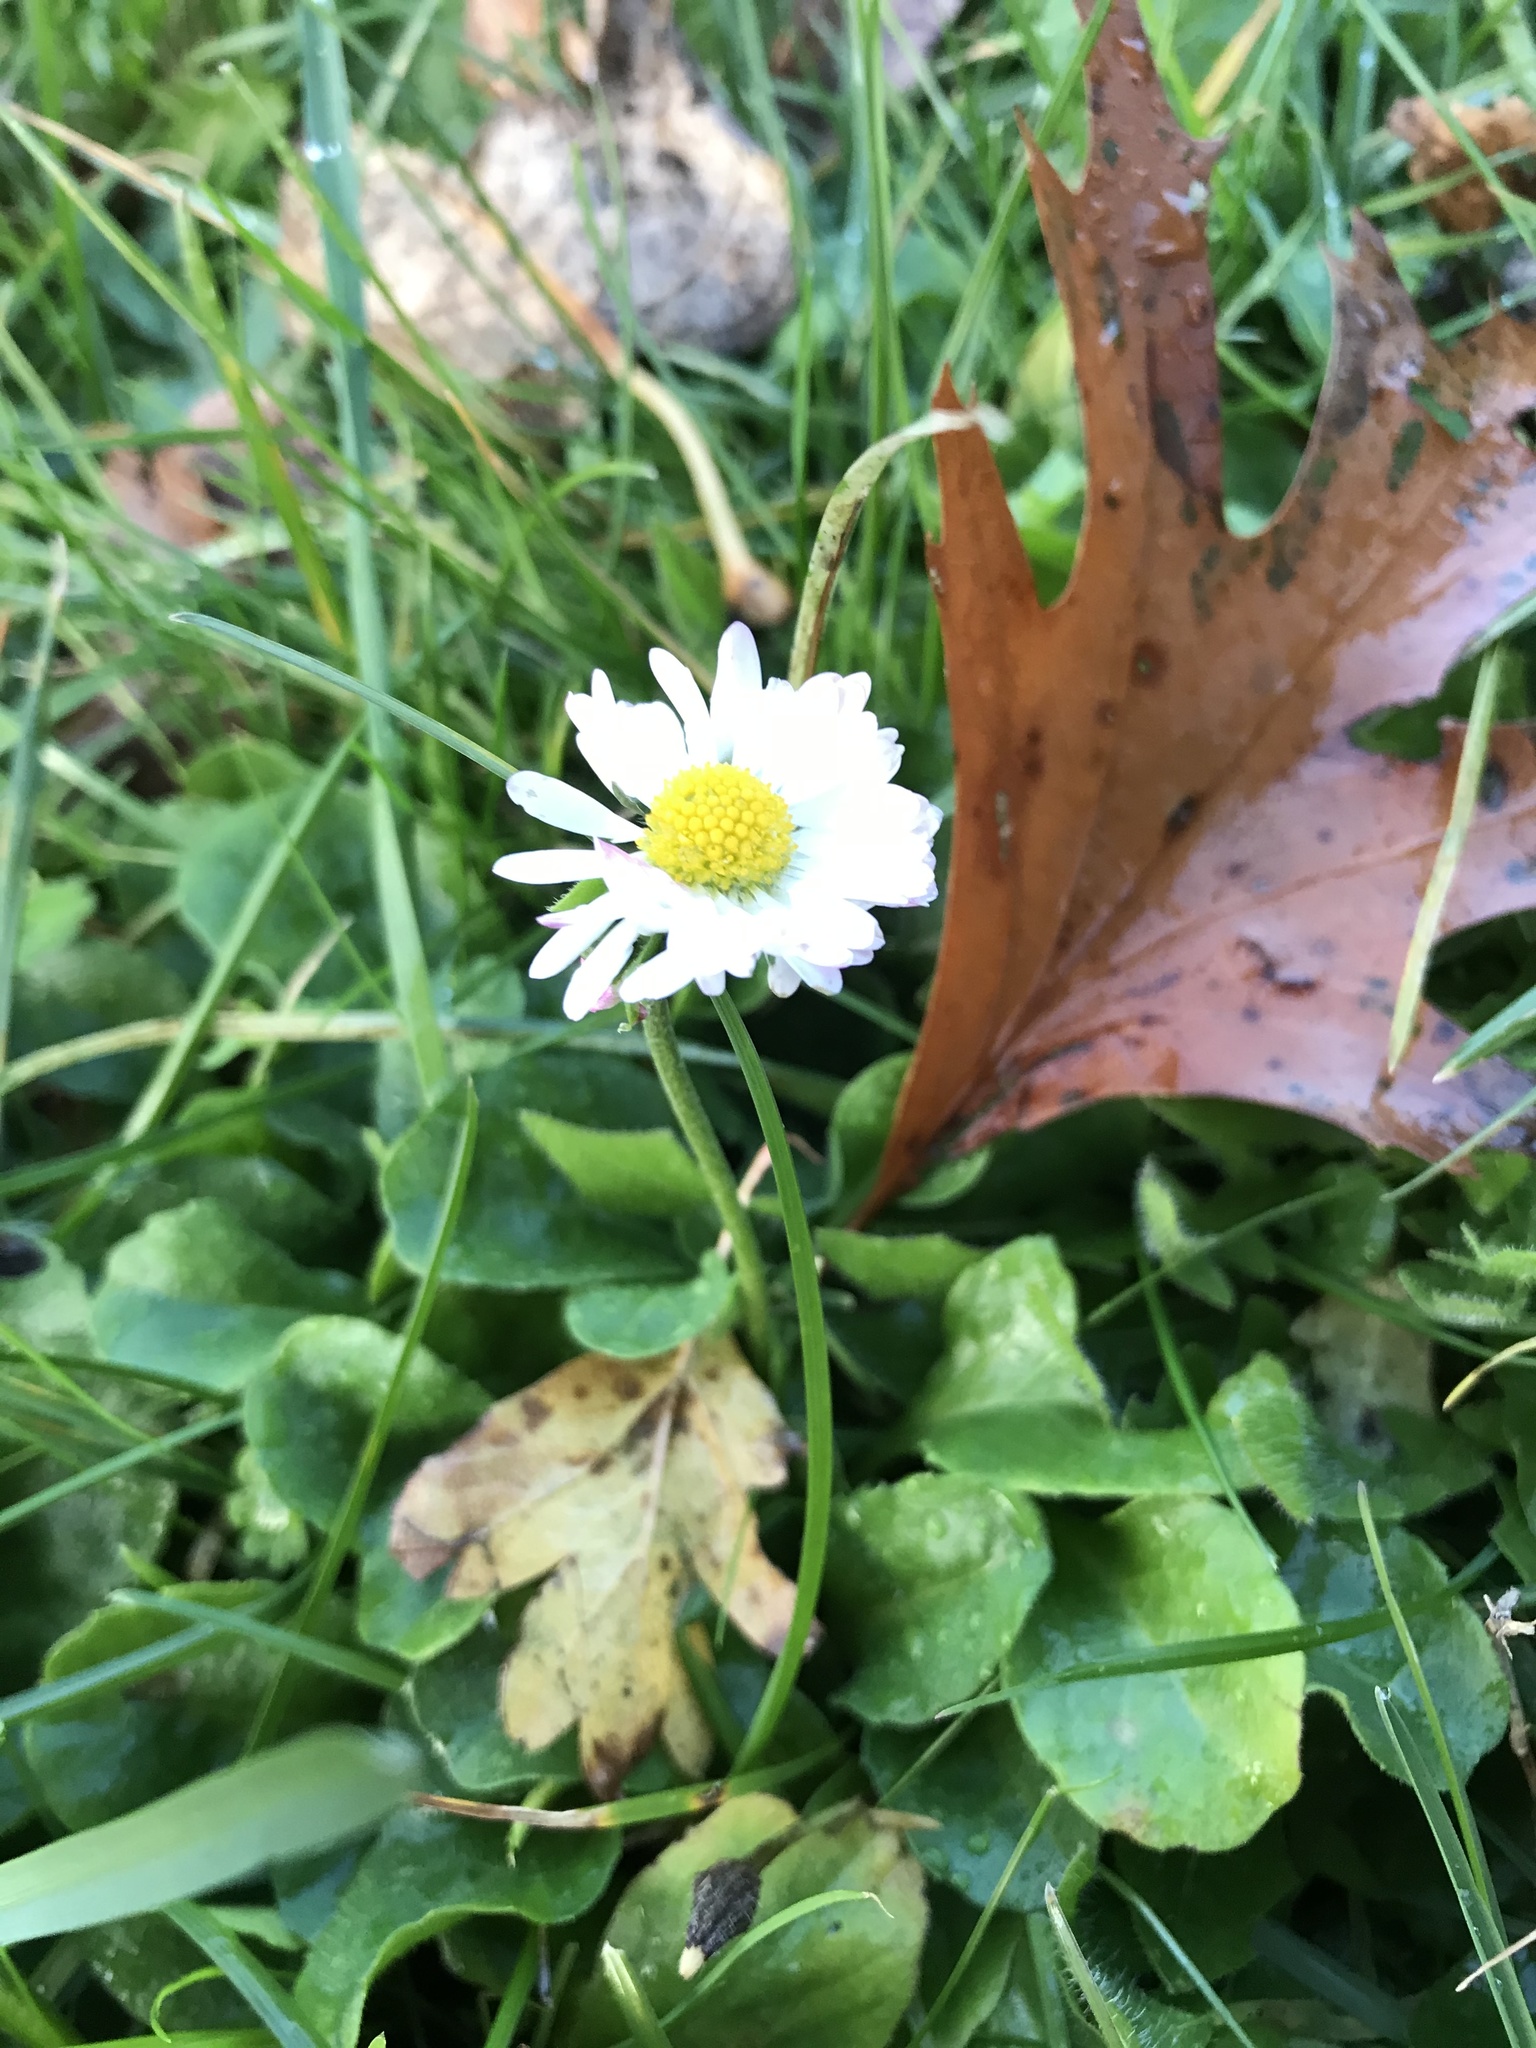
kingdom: Plantae
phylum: Tracheophyta
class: Magnoliopsida
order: Asterales
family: Asteraceae
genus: Bellis
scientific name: Bellis perennis
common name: Lawndaisy
